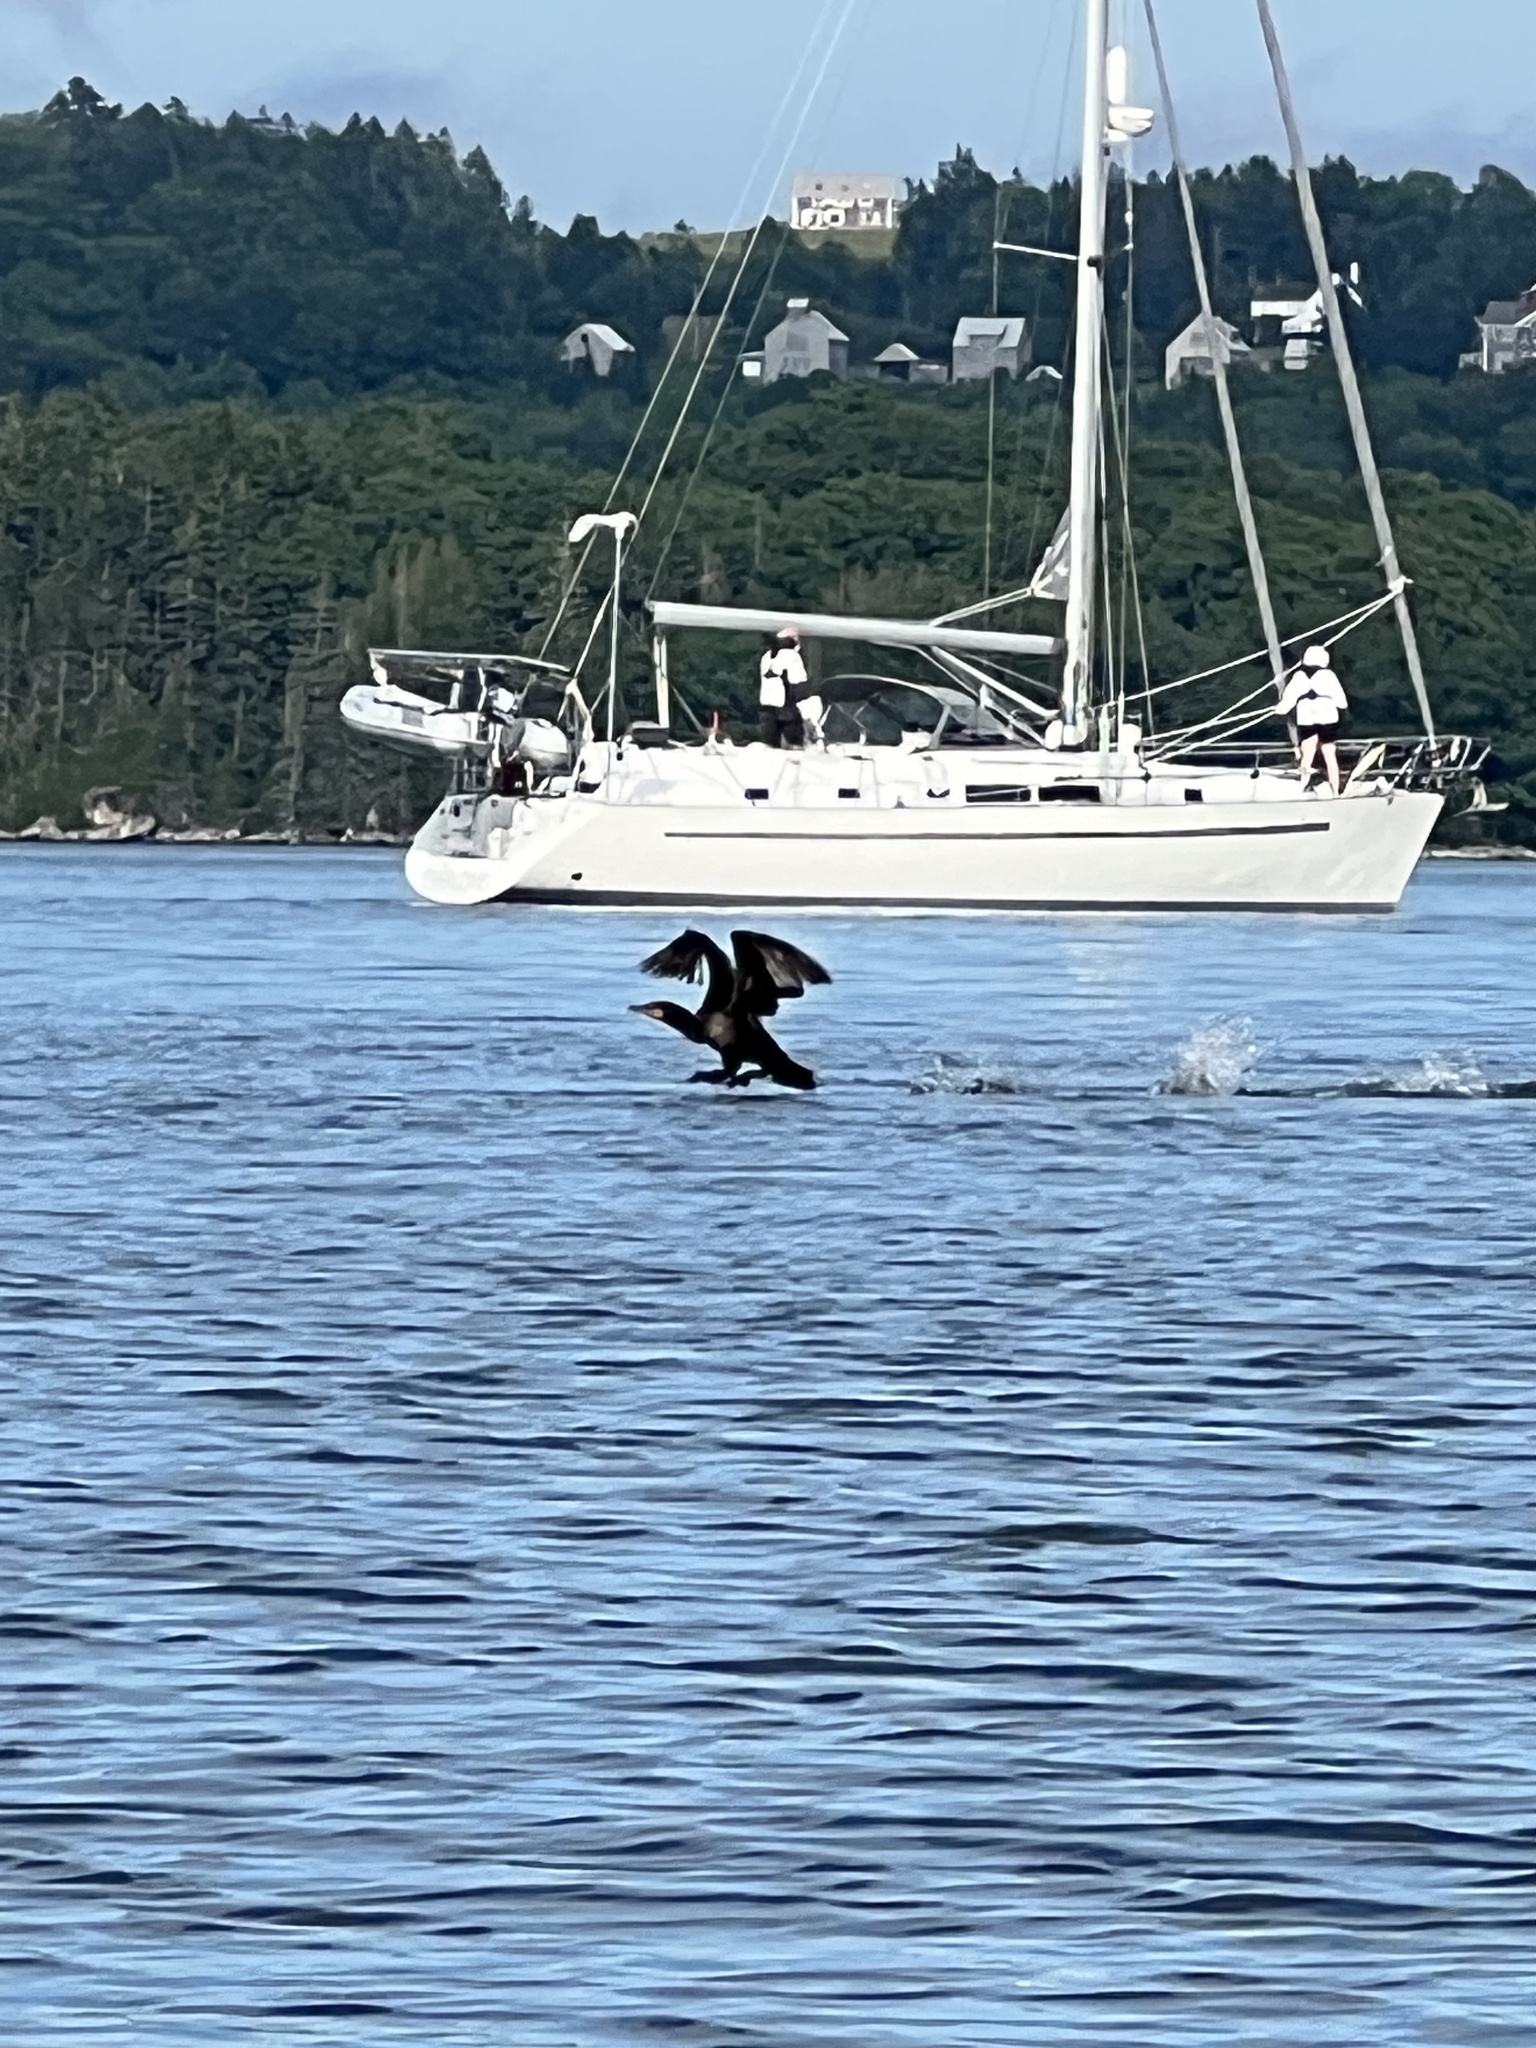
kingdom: Animalia
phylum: Chordata
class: Aves
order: Suliformes
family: Phalacrocoracidae
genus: Phalacrocorax
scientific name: Phalacrocorax auritus
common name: Double-crested cormorant
